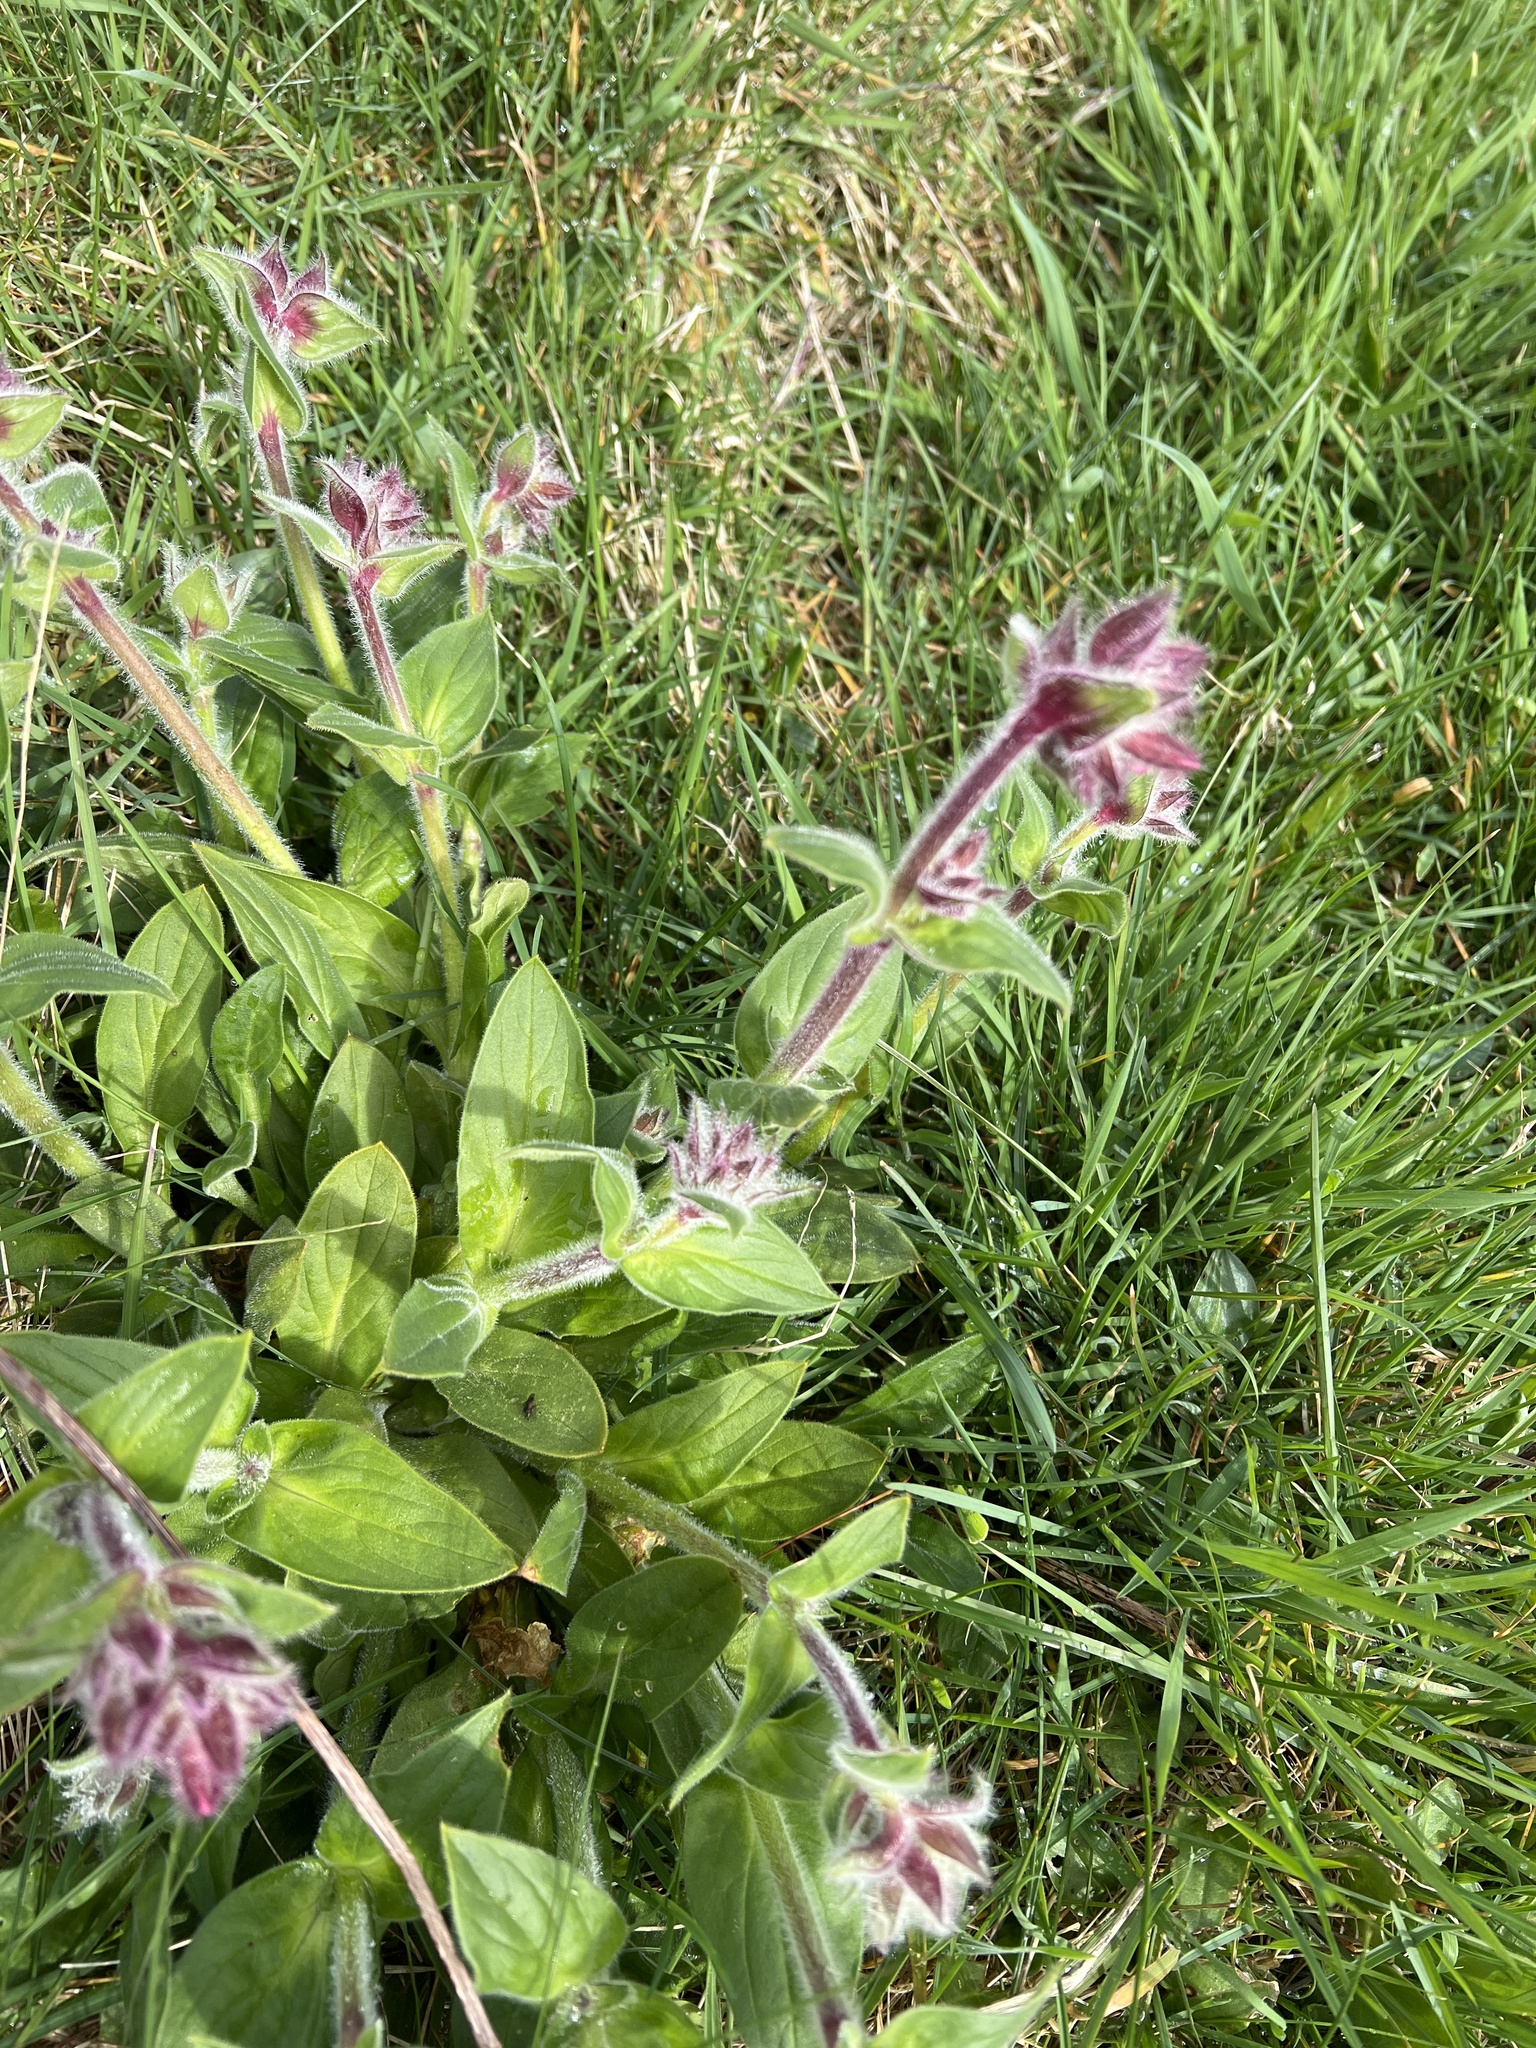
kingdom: Plantae
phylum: Tracheophyta
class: Magnoliopsida
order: Caryophyllales
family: Caryophyllaceae
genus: Silene
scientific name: Silene dioica
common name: Red campion
